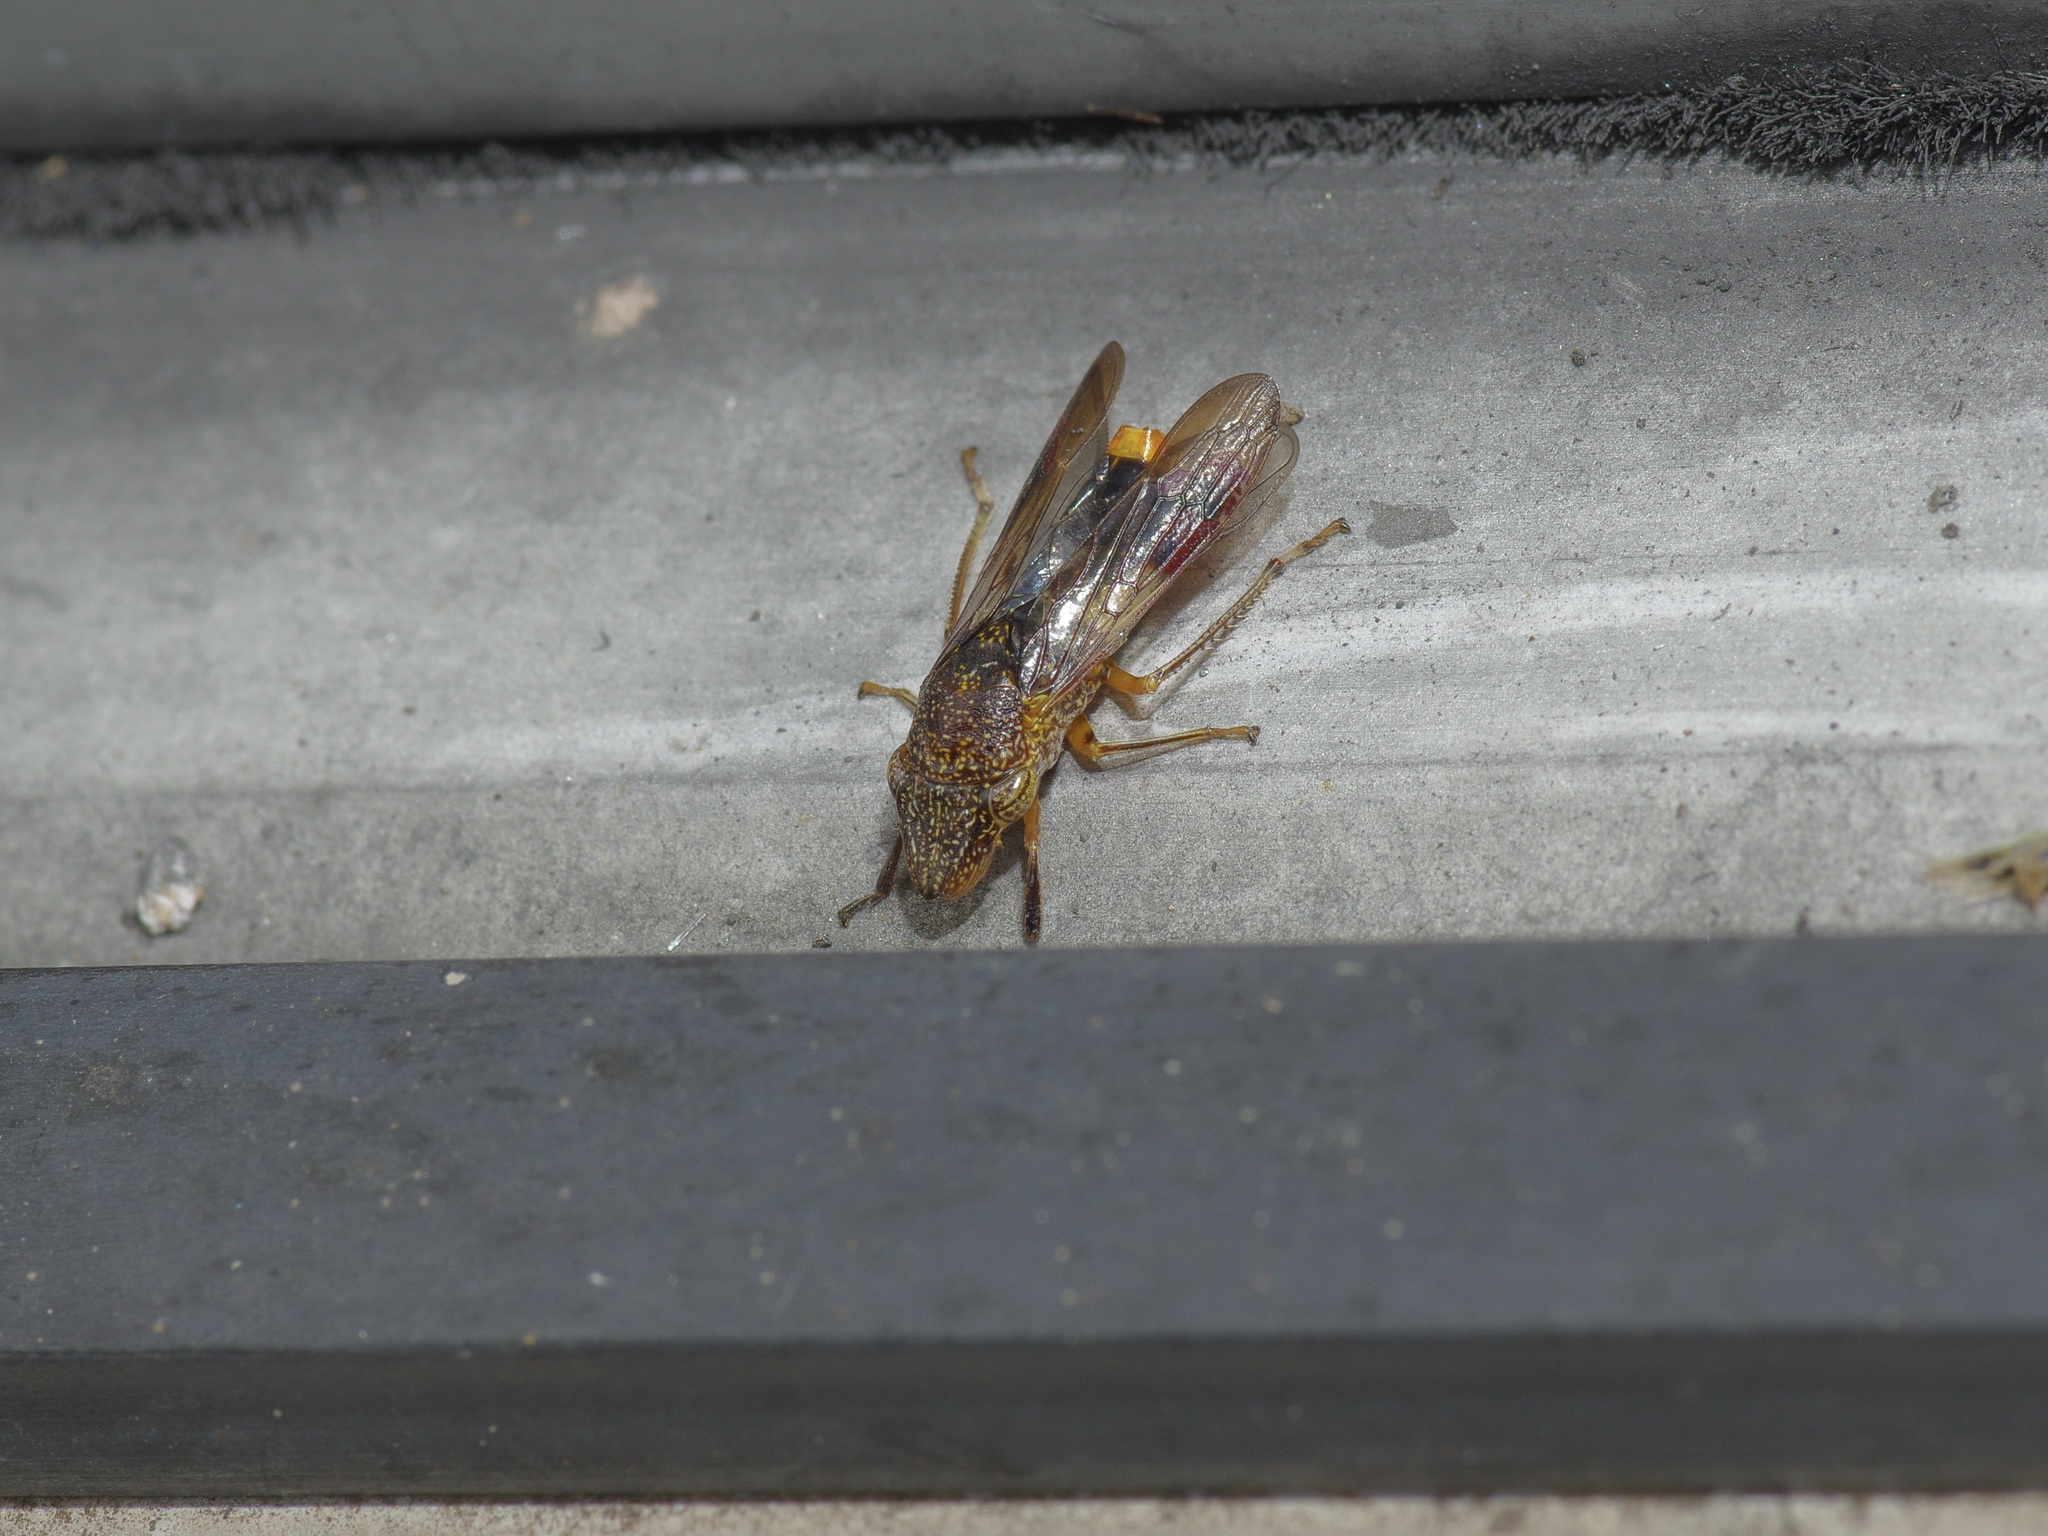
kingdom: Animalia
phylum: Arthropoda
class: Insecta
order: Hemiptera
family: Cicadellidae
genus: Homalodisca
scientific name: Homalodisca vitripennis
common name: Glassy-winged sharpshooter
